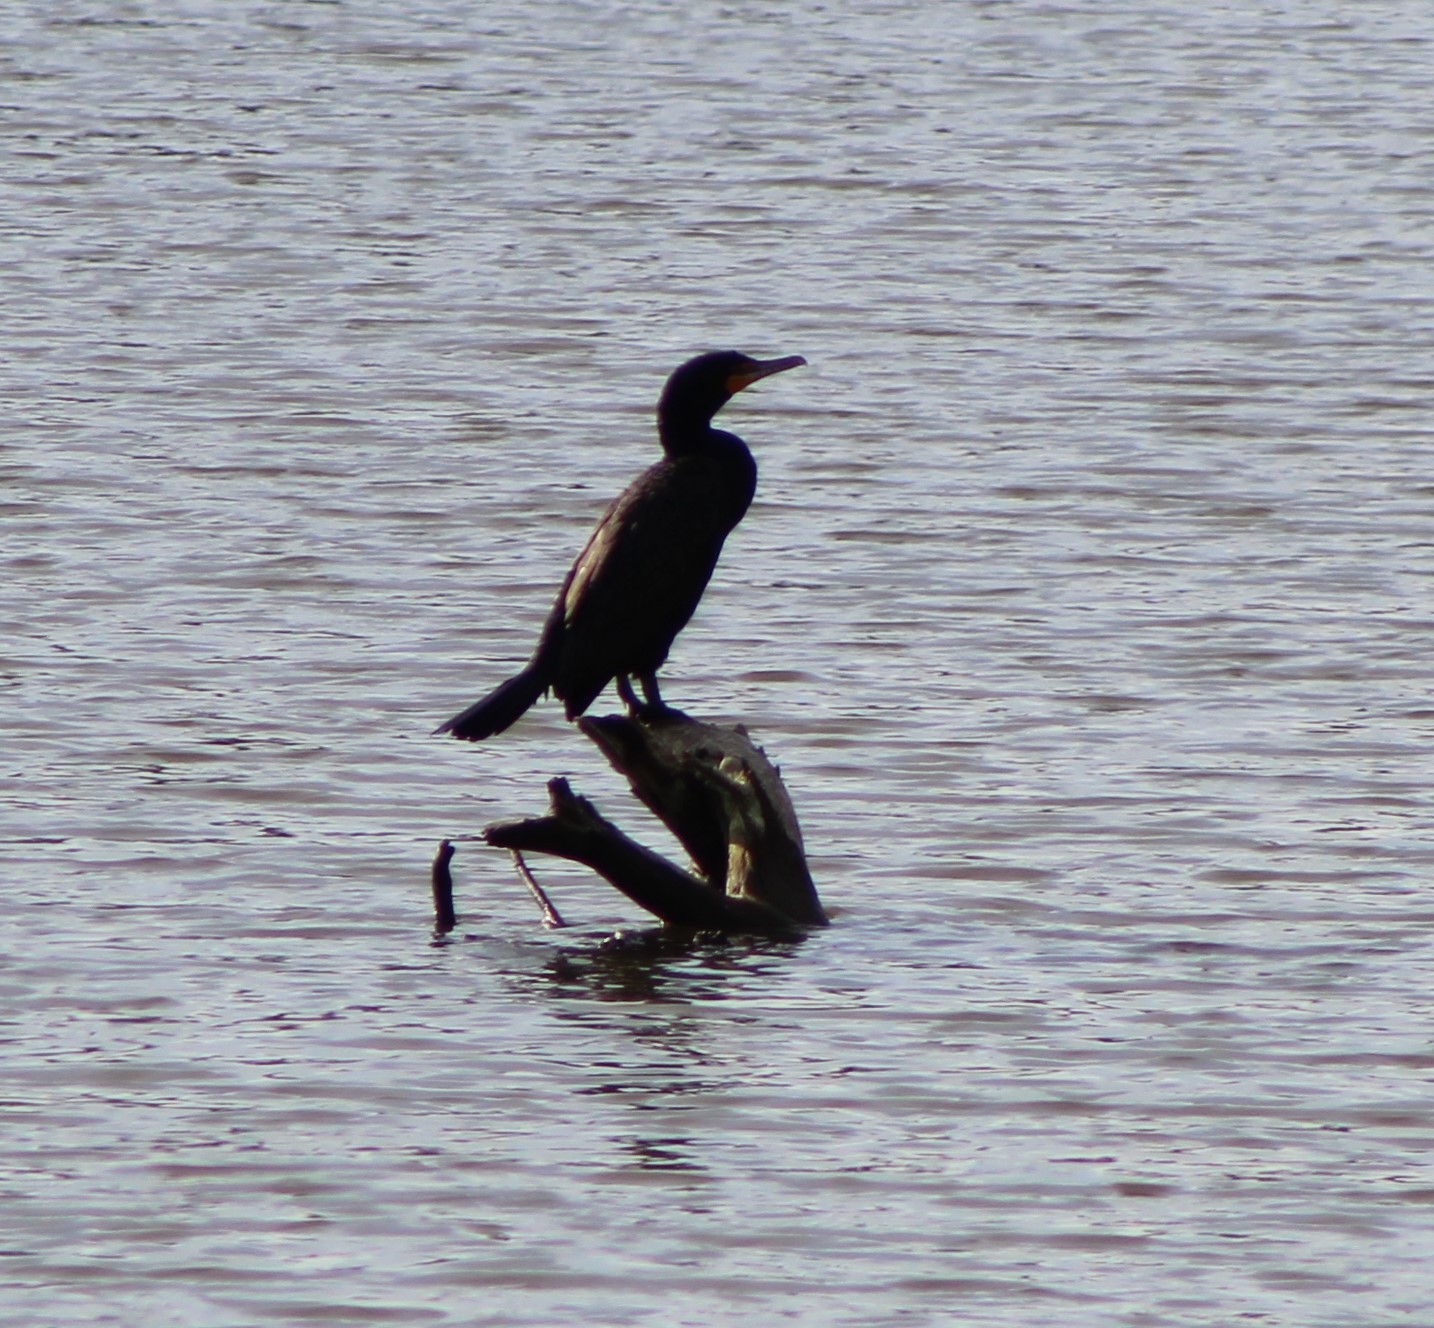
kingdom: Animalia
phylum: Chordata
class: Aves
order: Suliformes
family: Phalacrocoracidae
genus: Phalacrocorax
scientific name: Phalacrocorax auritus
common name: Double-crested cormorant
